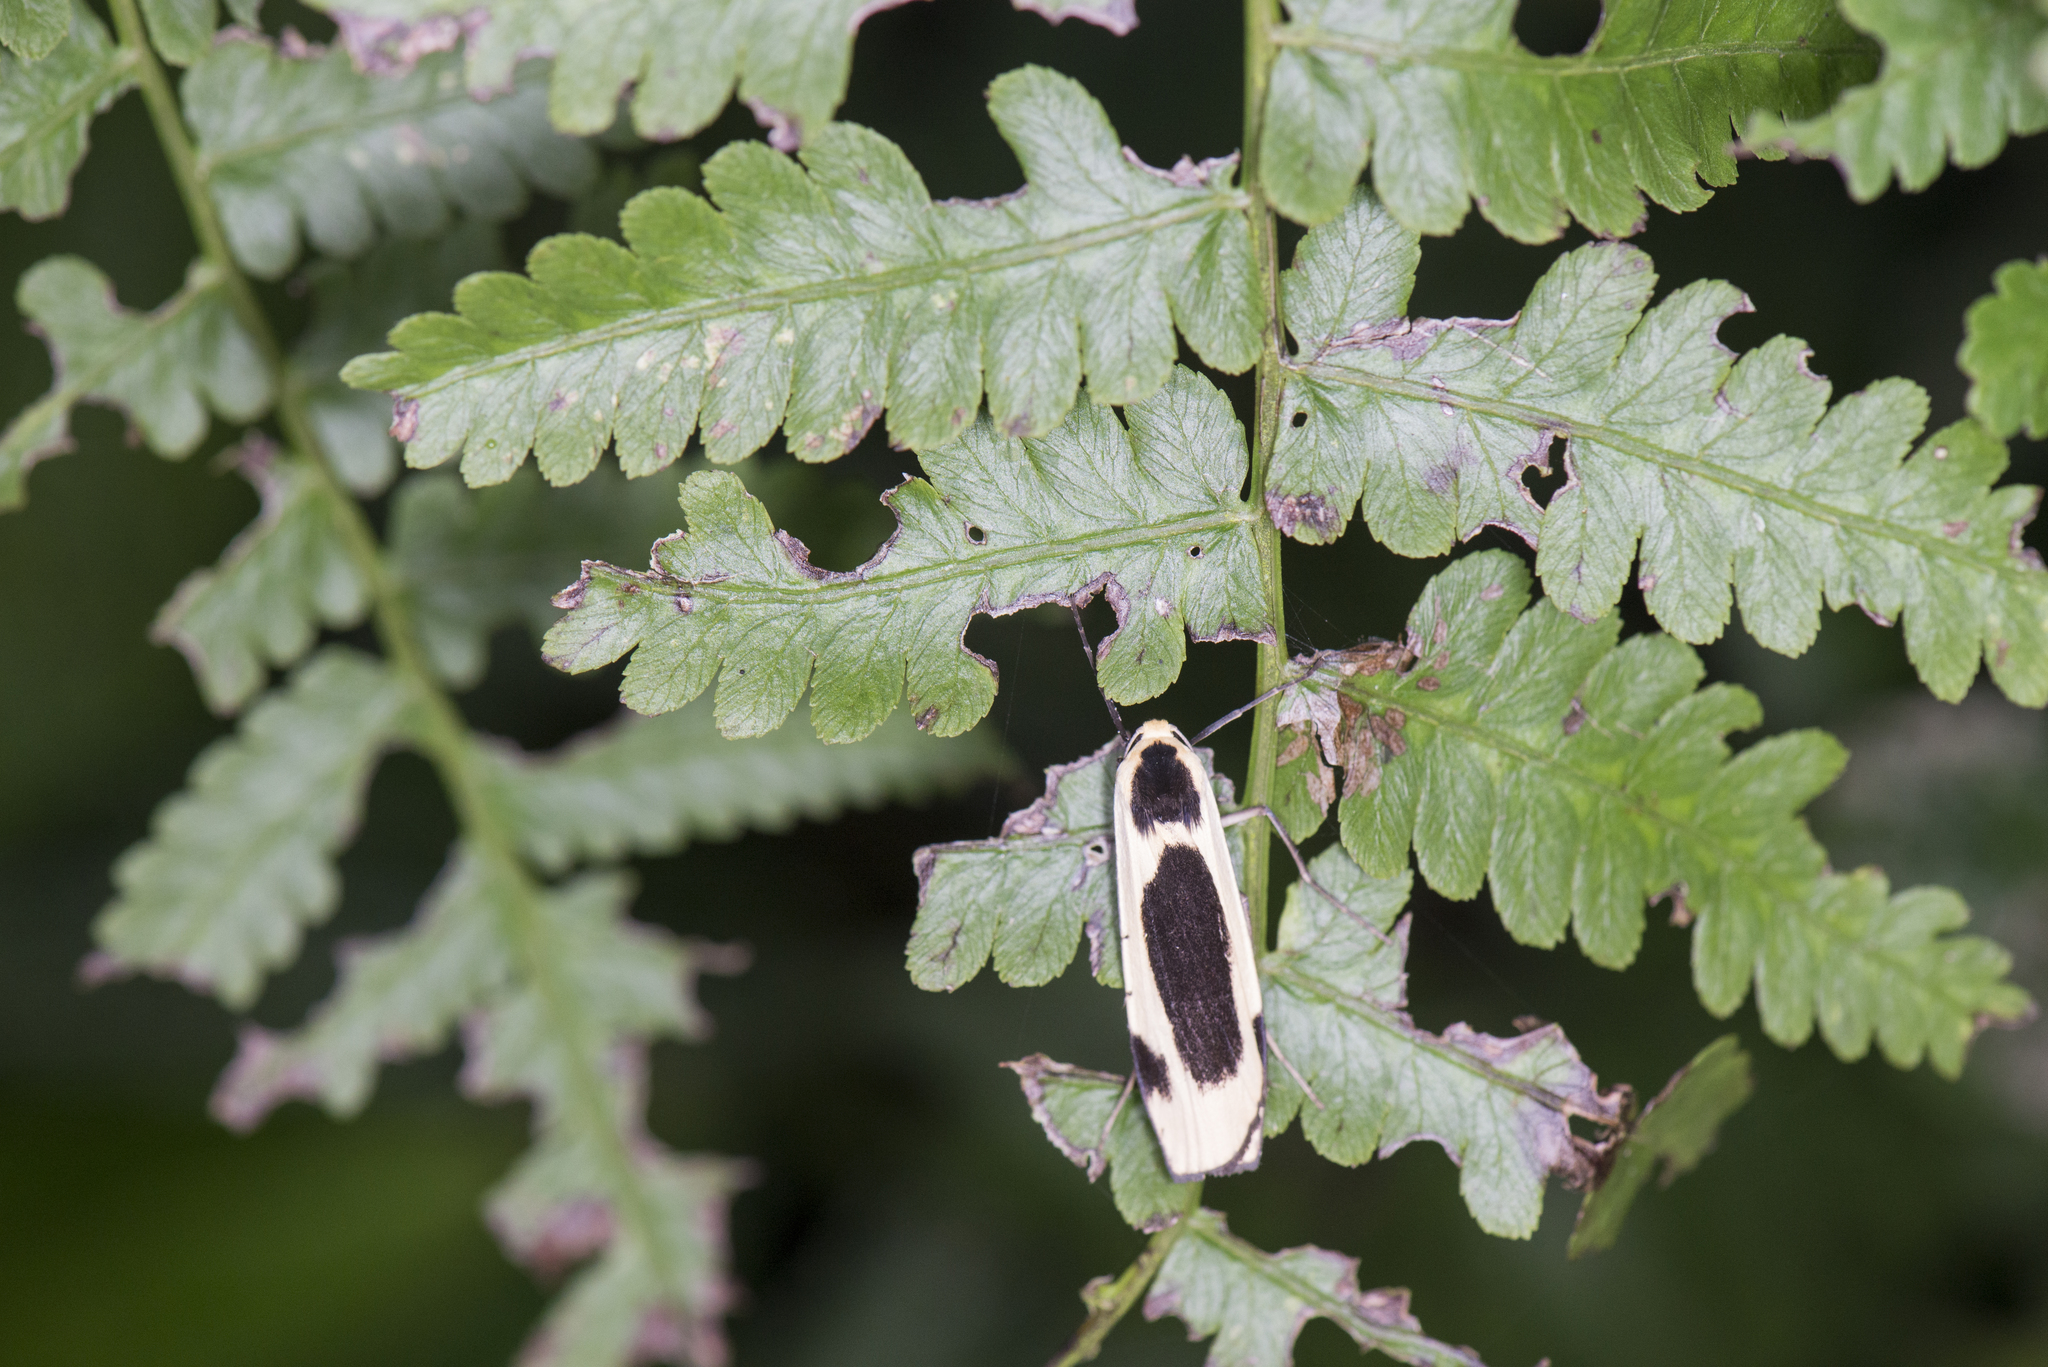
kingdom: Animalia
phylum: Arthropoda
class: Insecta
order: Lepidoptera
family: Erebidae
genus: Thysanoptyx
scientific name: Thysanoptyx incurvata
